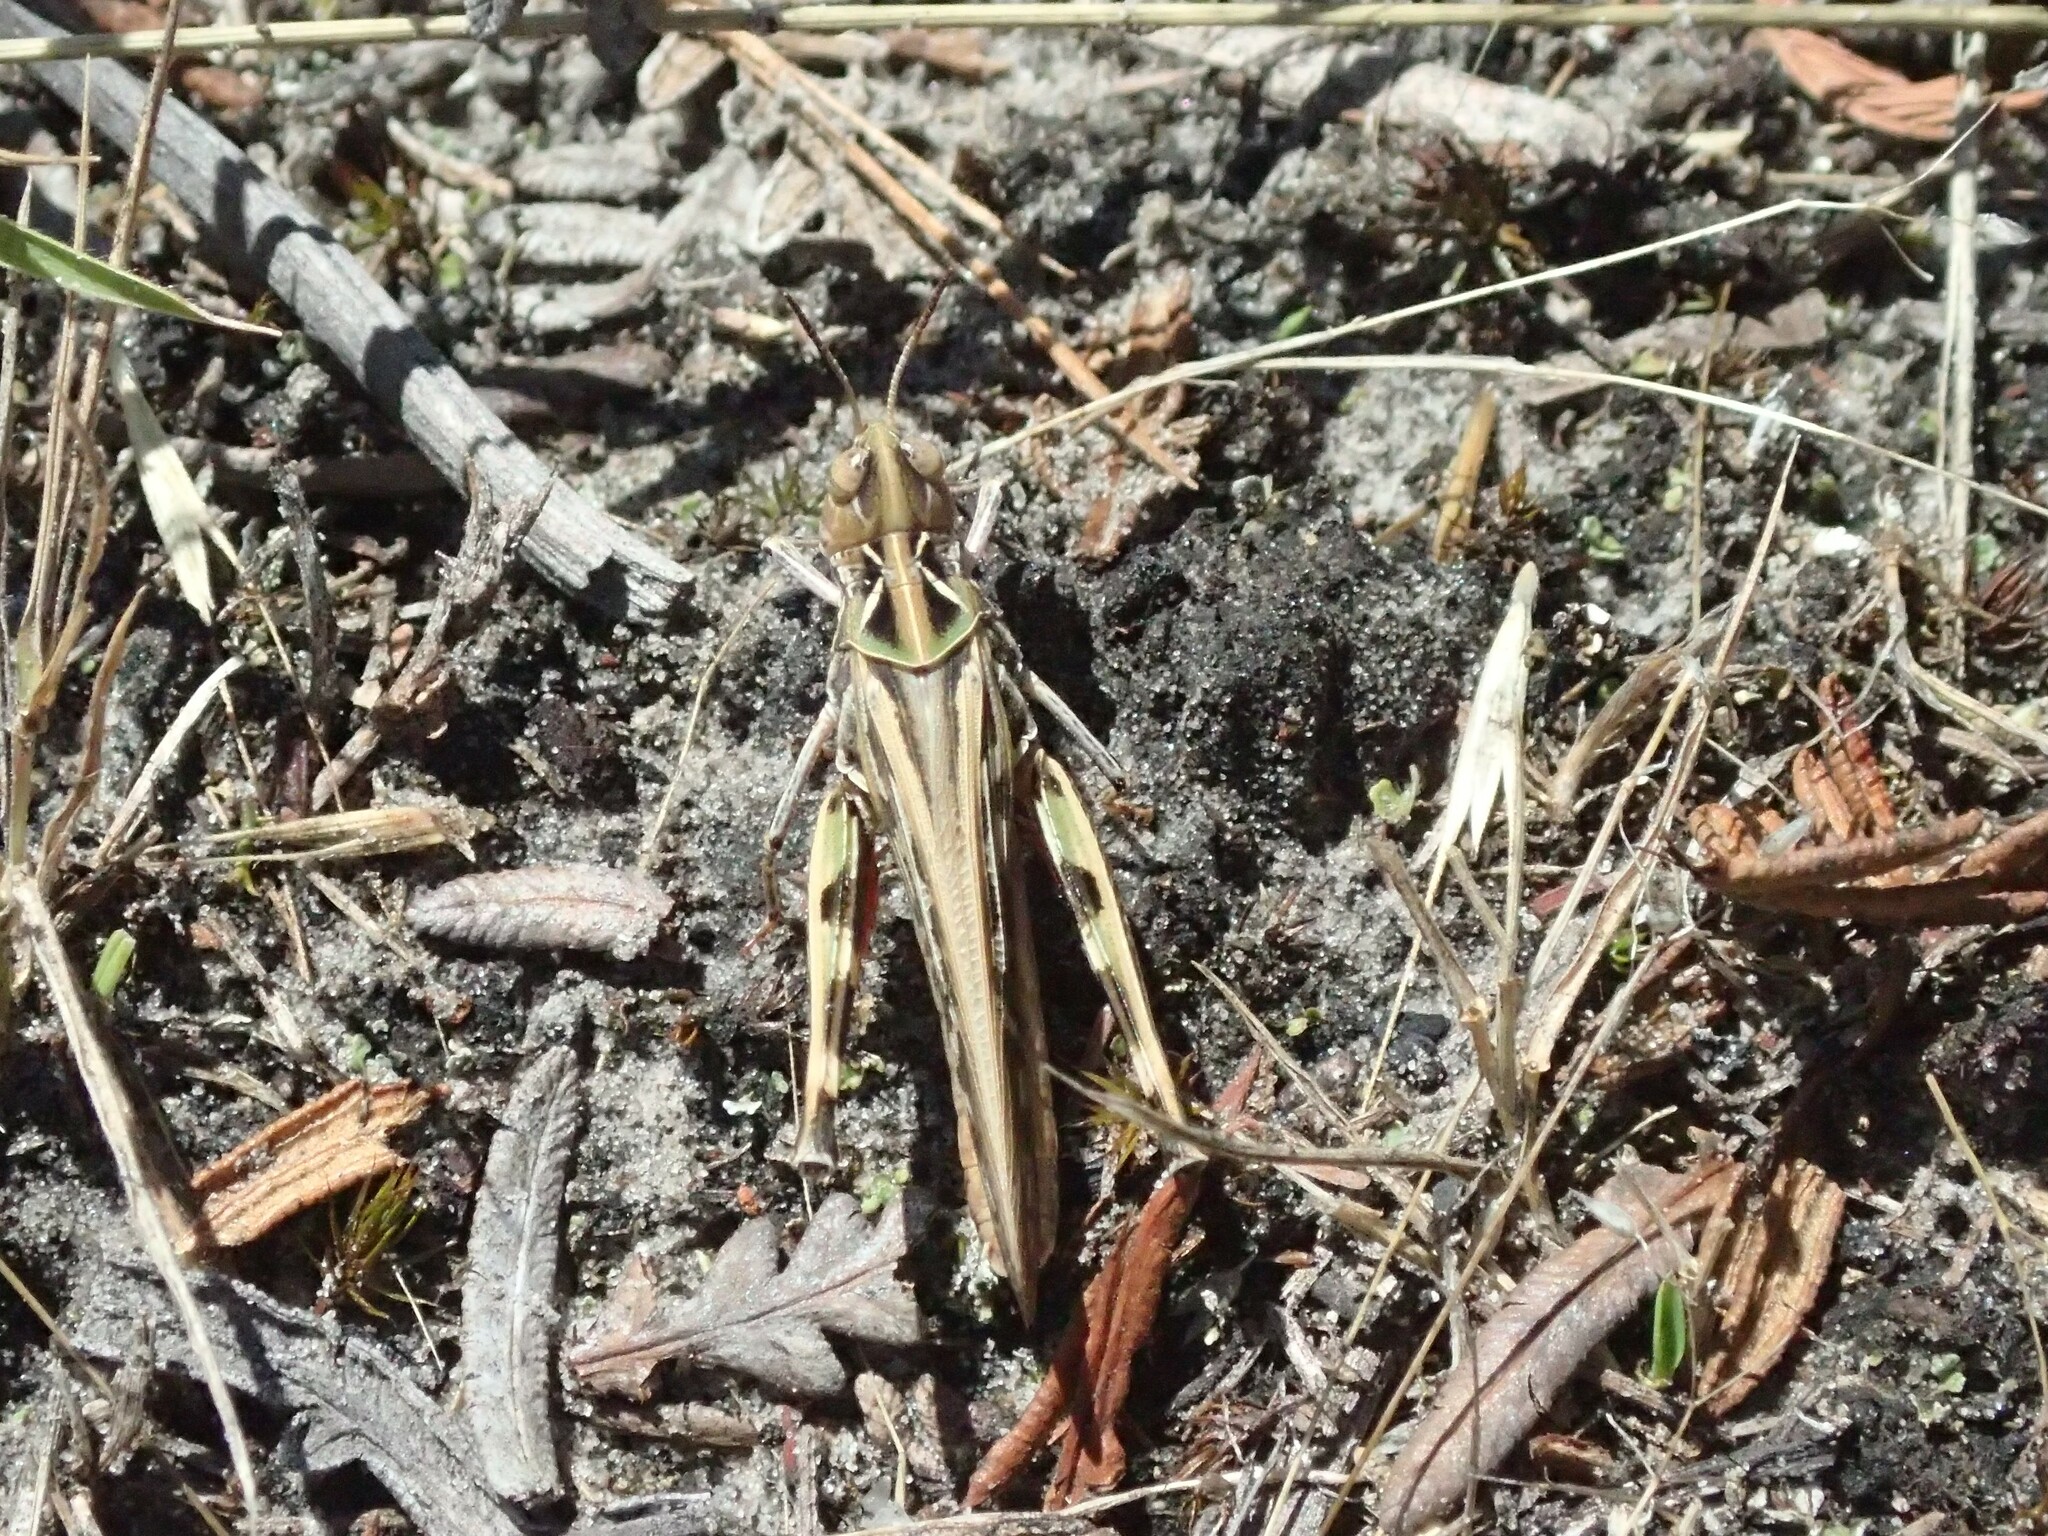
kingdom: Animalia
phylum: Arthropoda
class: Insecta
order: Orthoptera
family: Acrididae
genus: Austroicetes
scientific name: Austroicetes vulgaris
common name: Southeastern austroicetes
